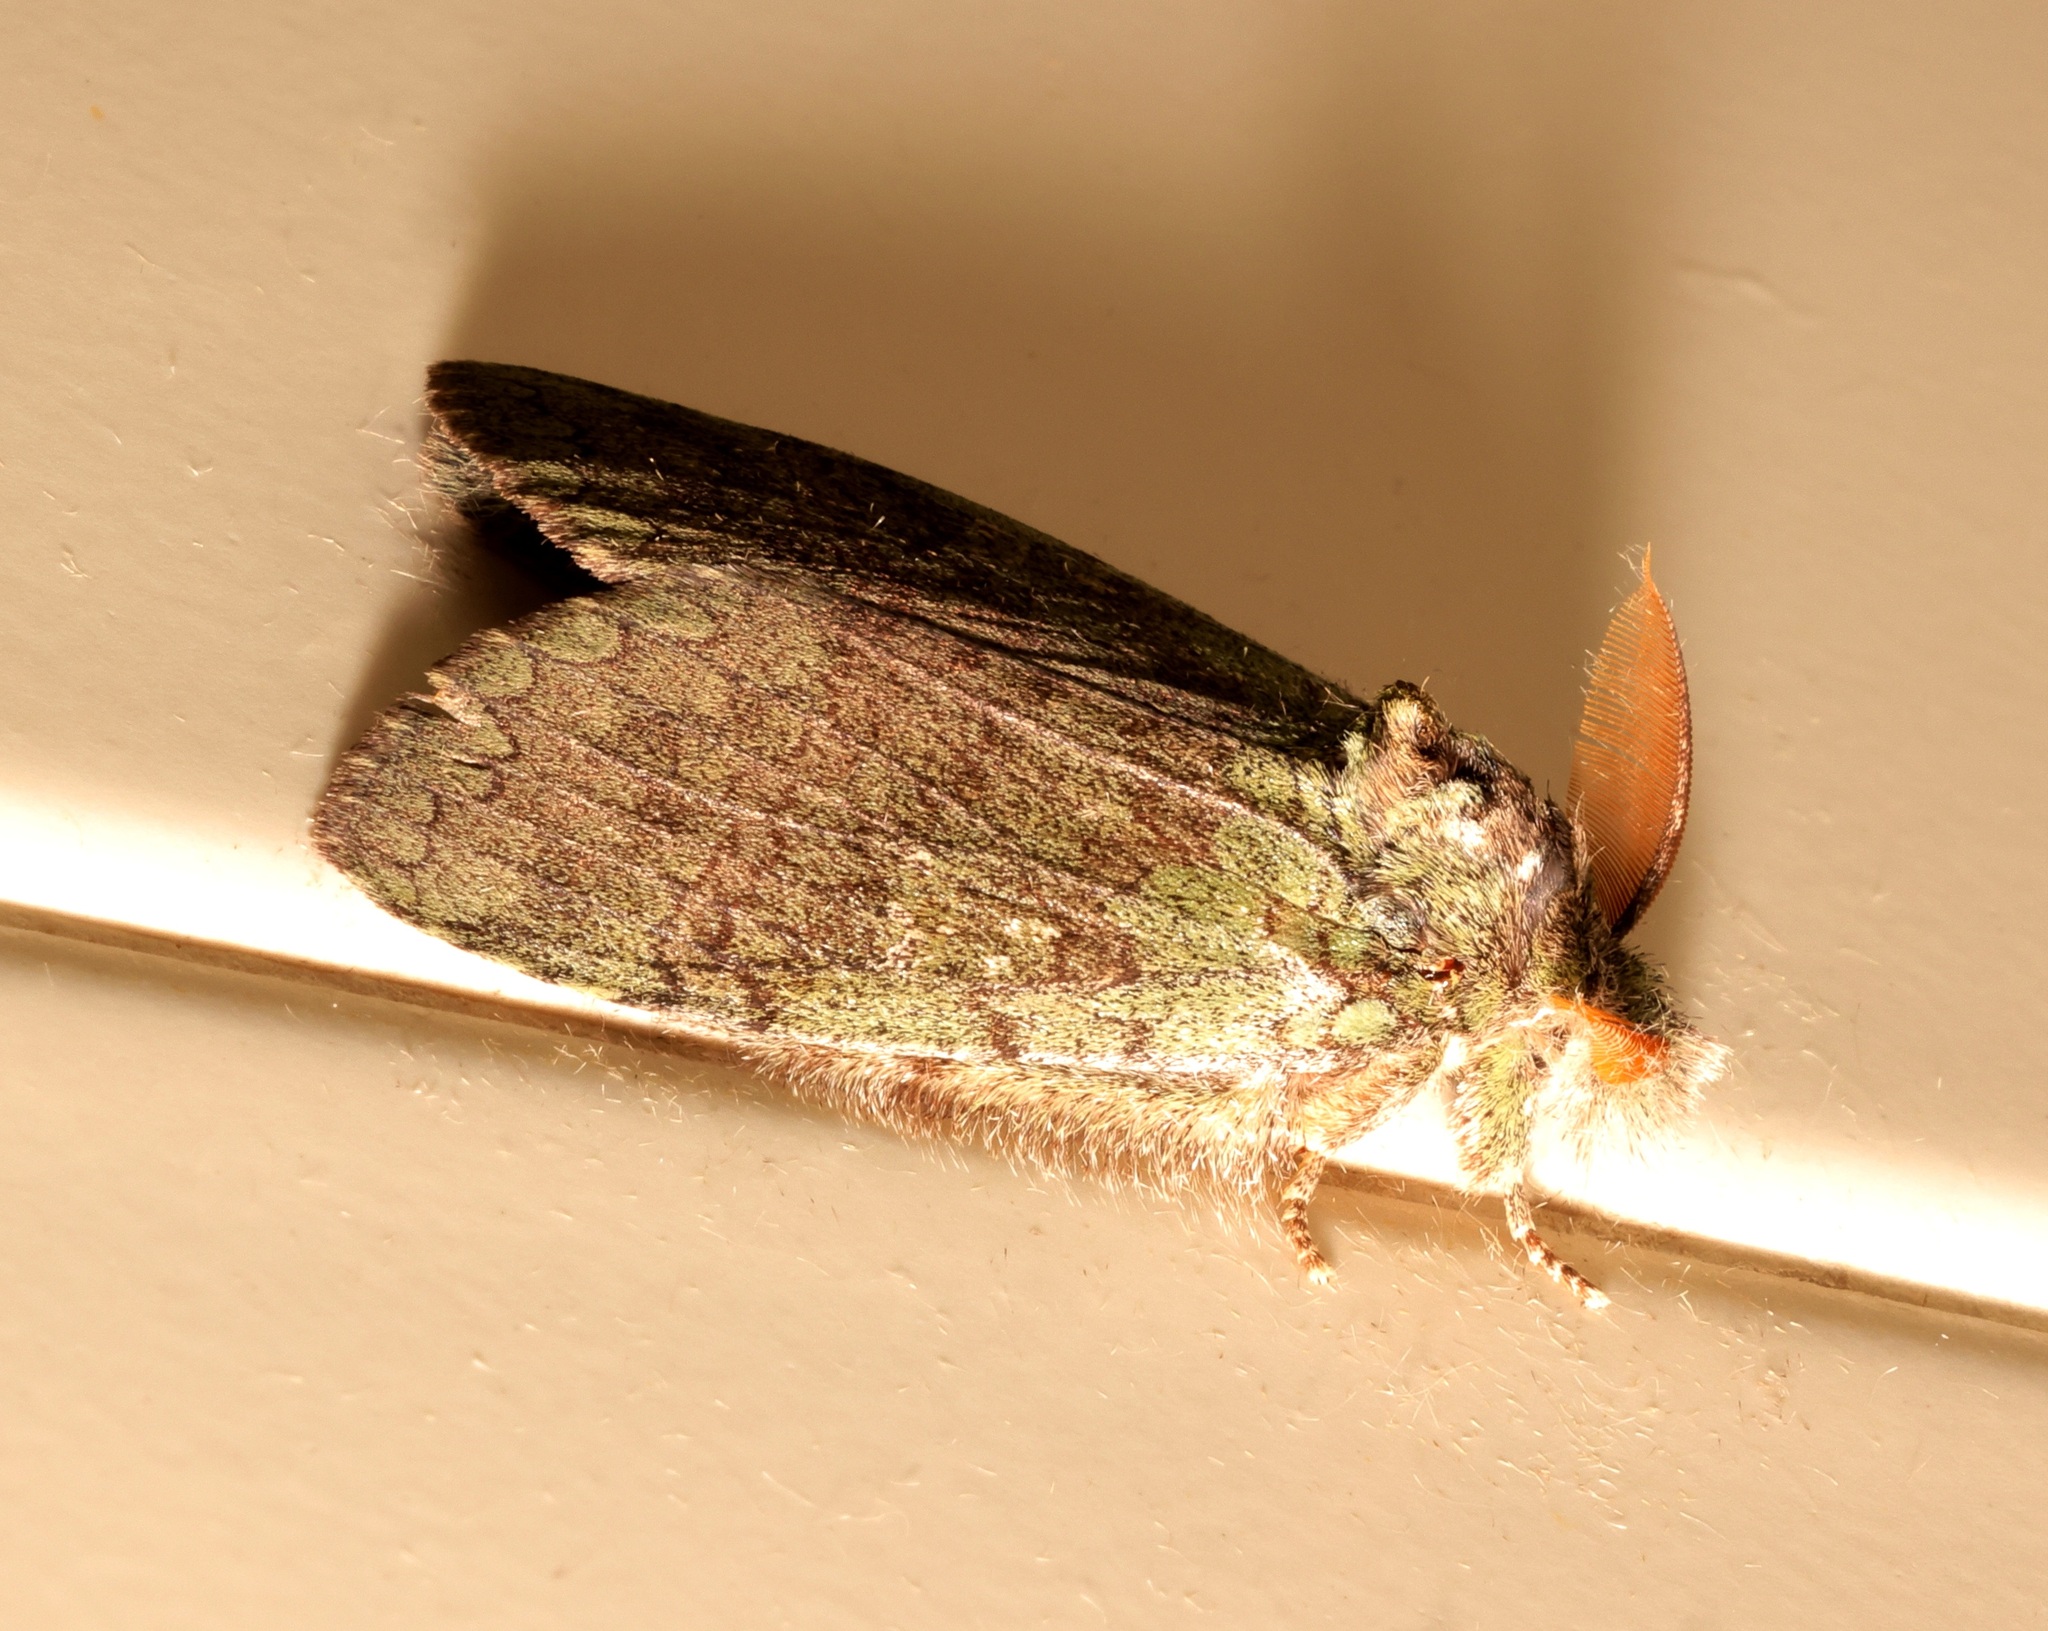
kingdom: Animalia
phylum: Arthropoda
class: Insecta
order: Lepidoptera
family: Notodontidae
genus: Netria
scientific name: Netria viridescens
